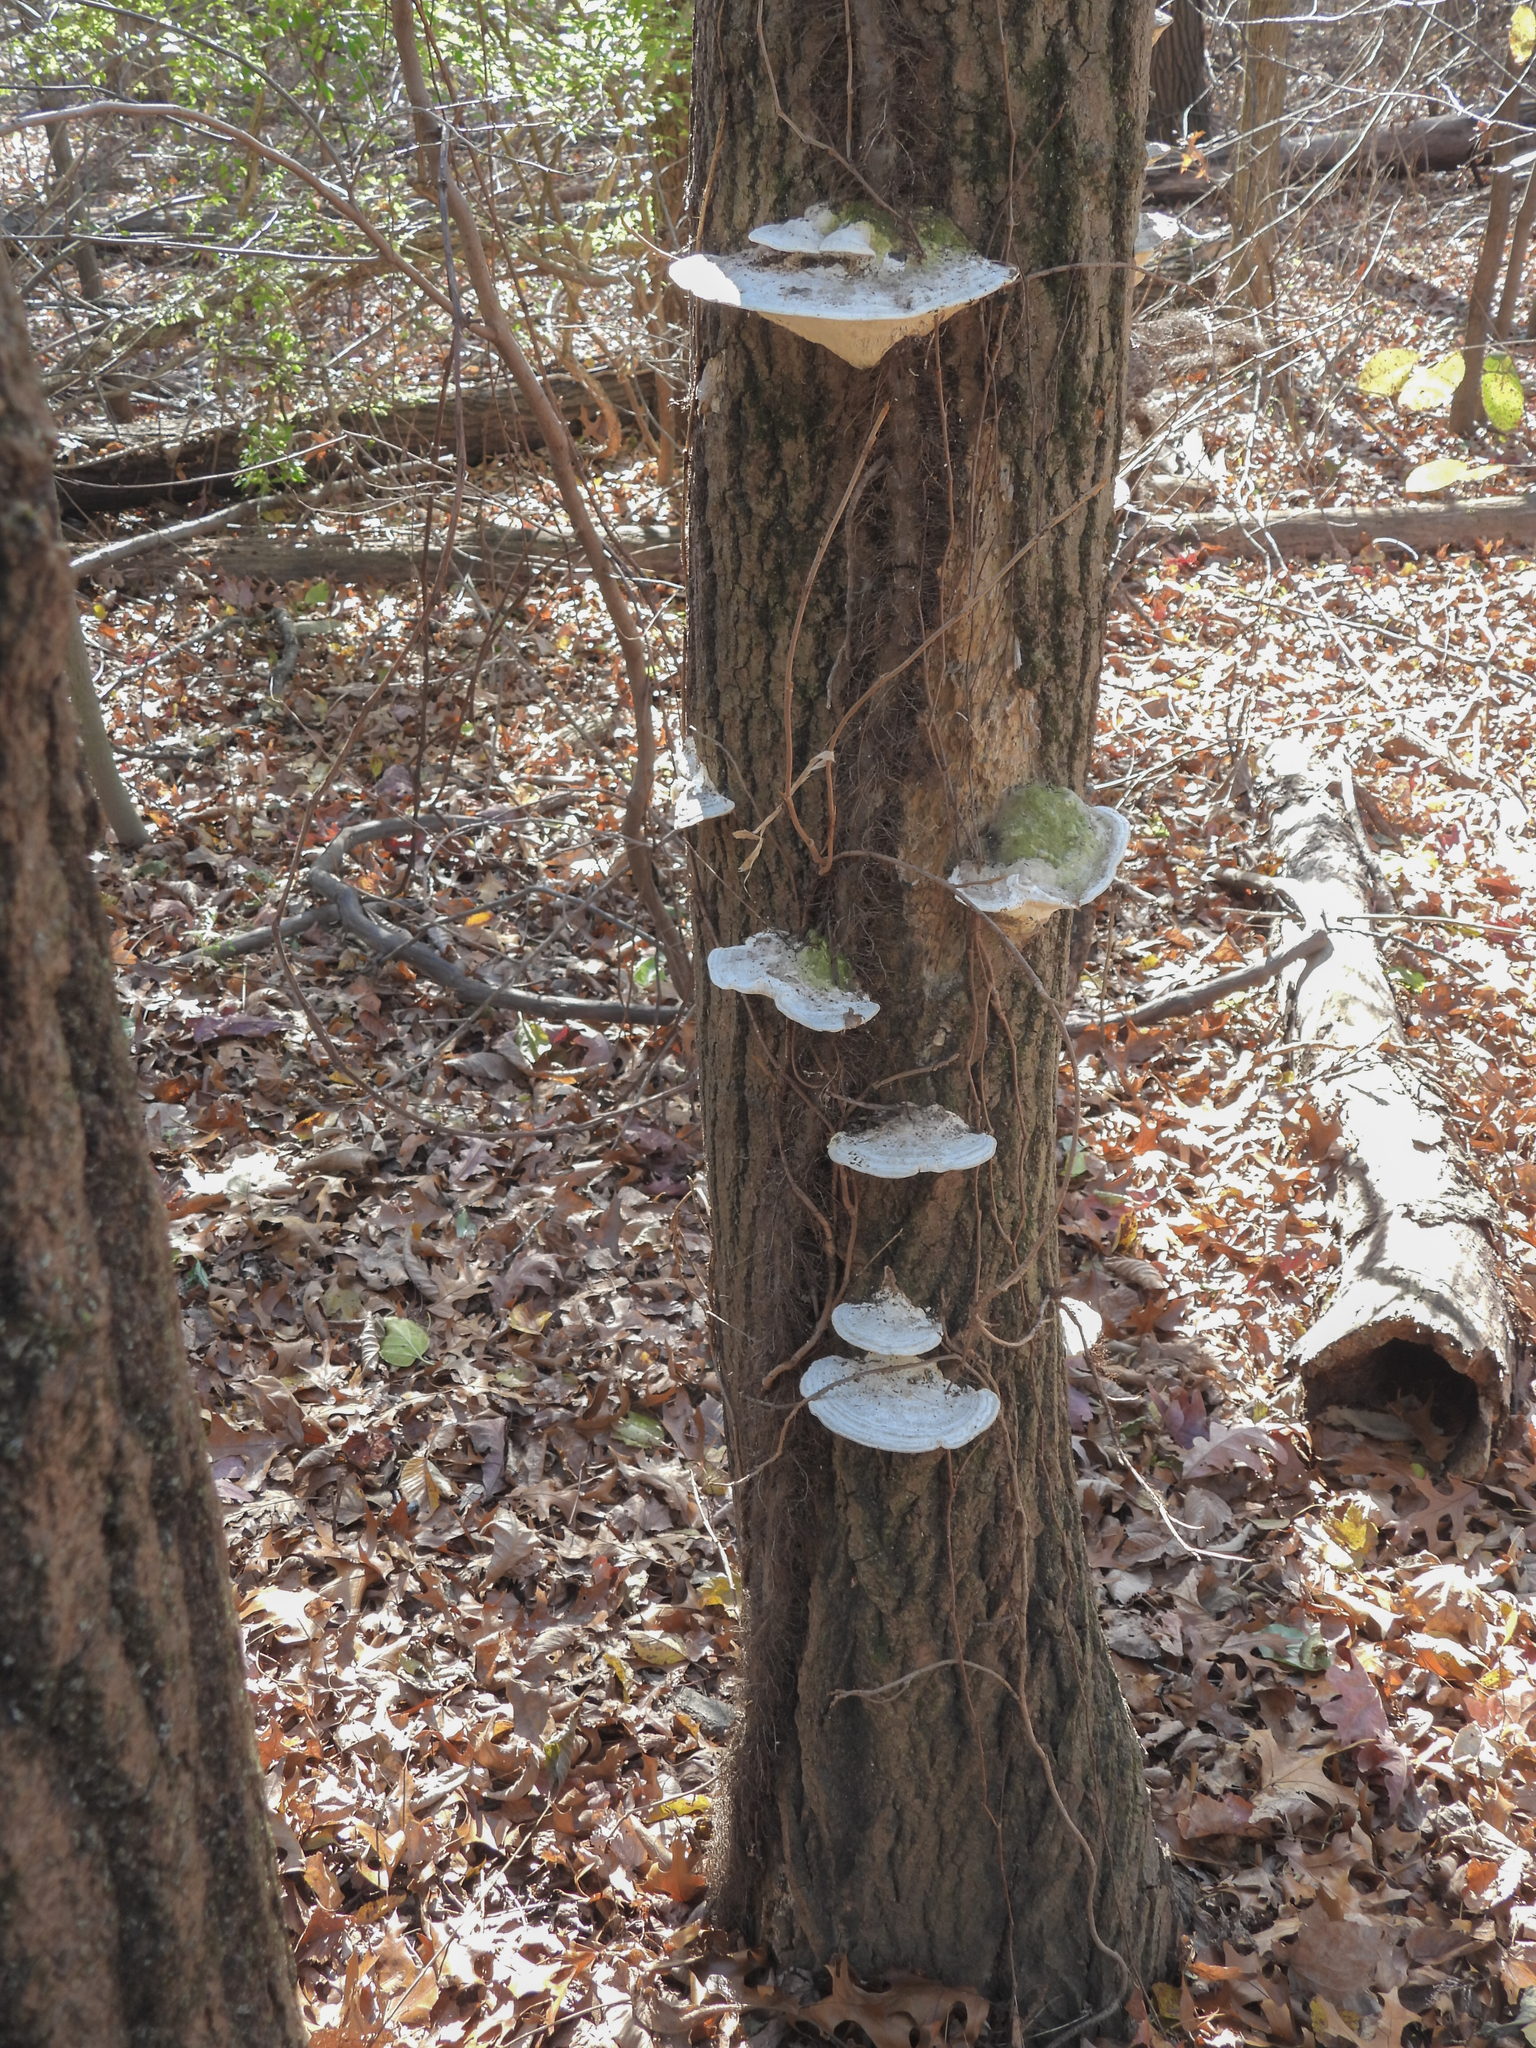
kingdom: Fungi
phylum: Basidiomycota
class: Agaricomycetes
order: Polyporales
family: Polyporaceae
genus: Trametes
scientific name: Trametes gibbosa
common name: Lumpy bracket
